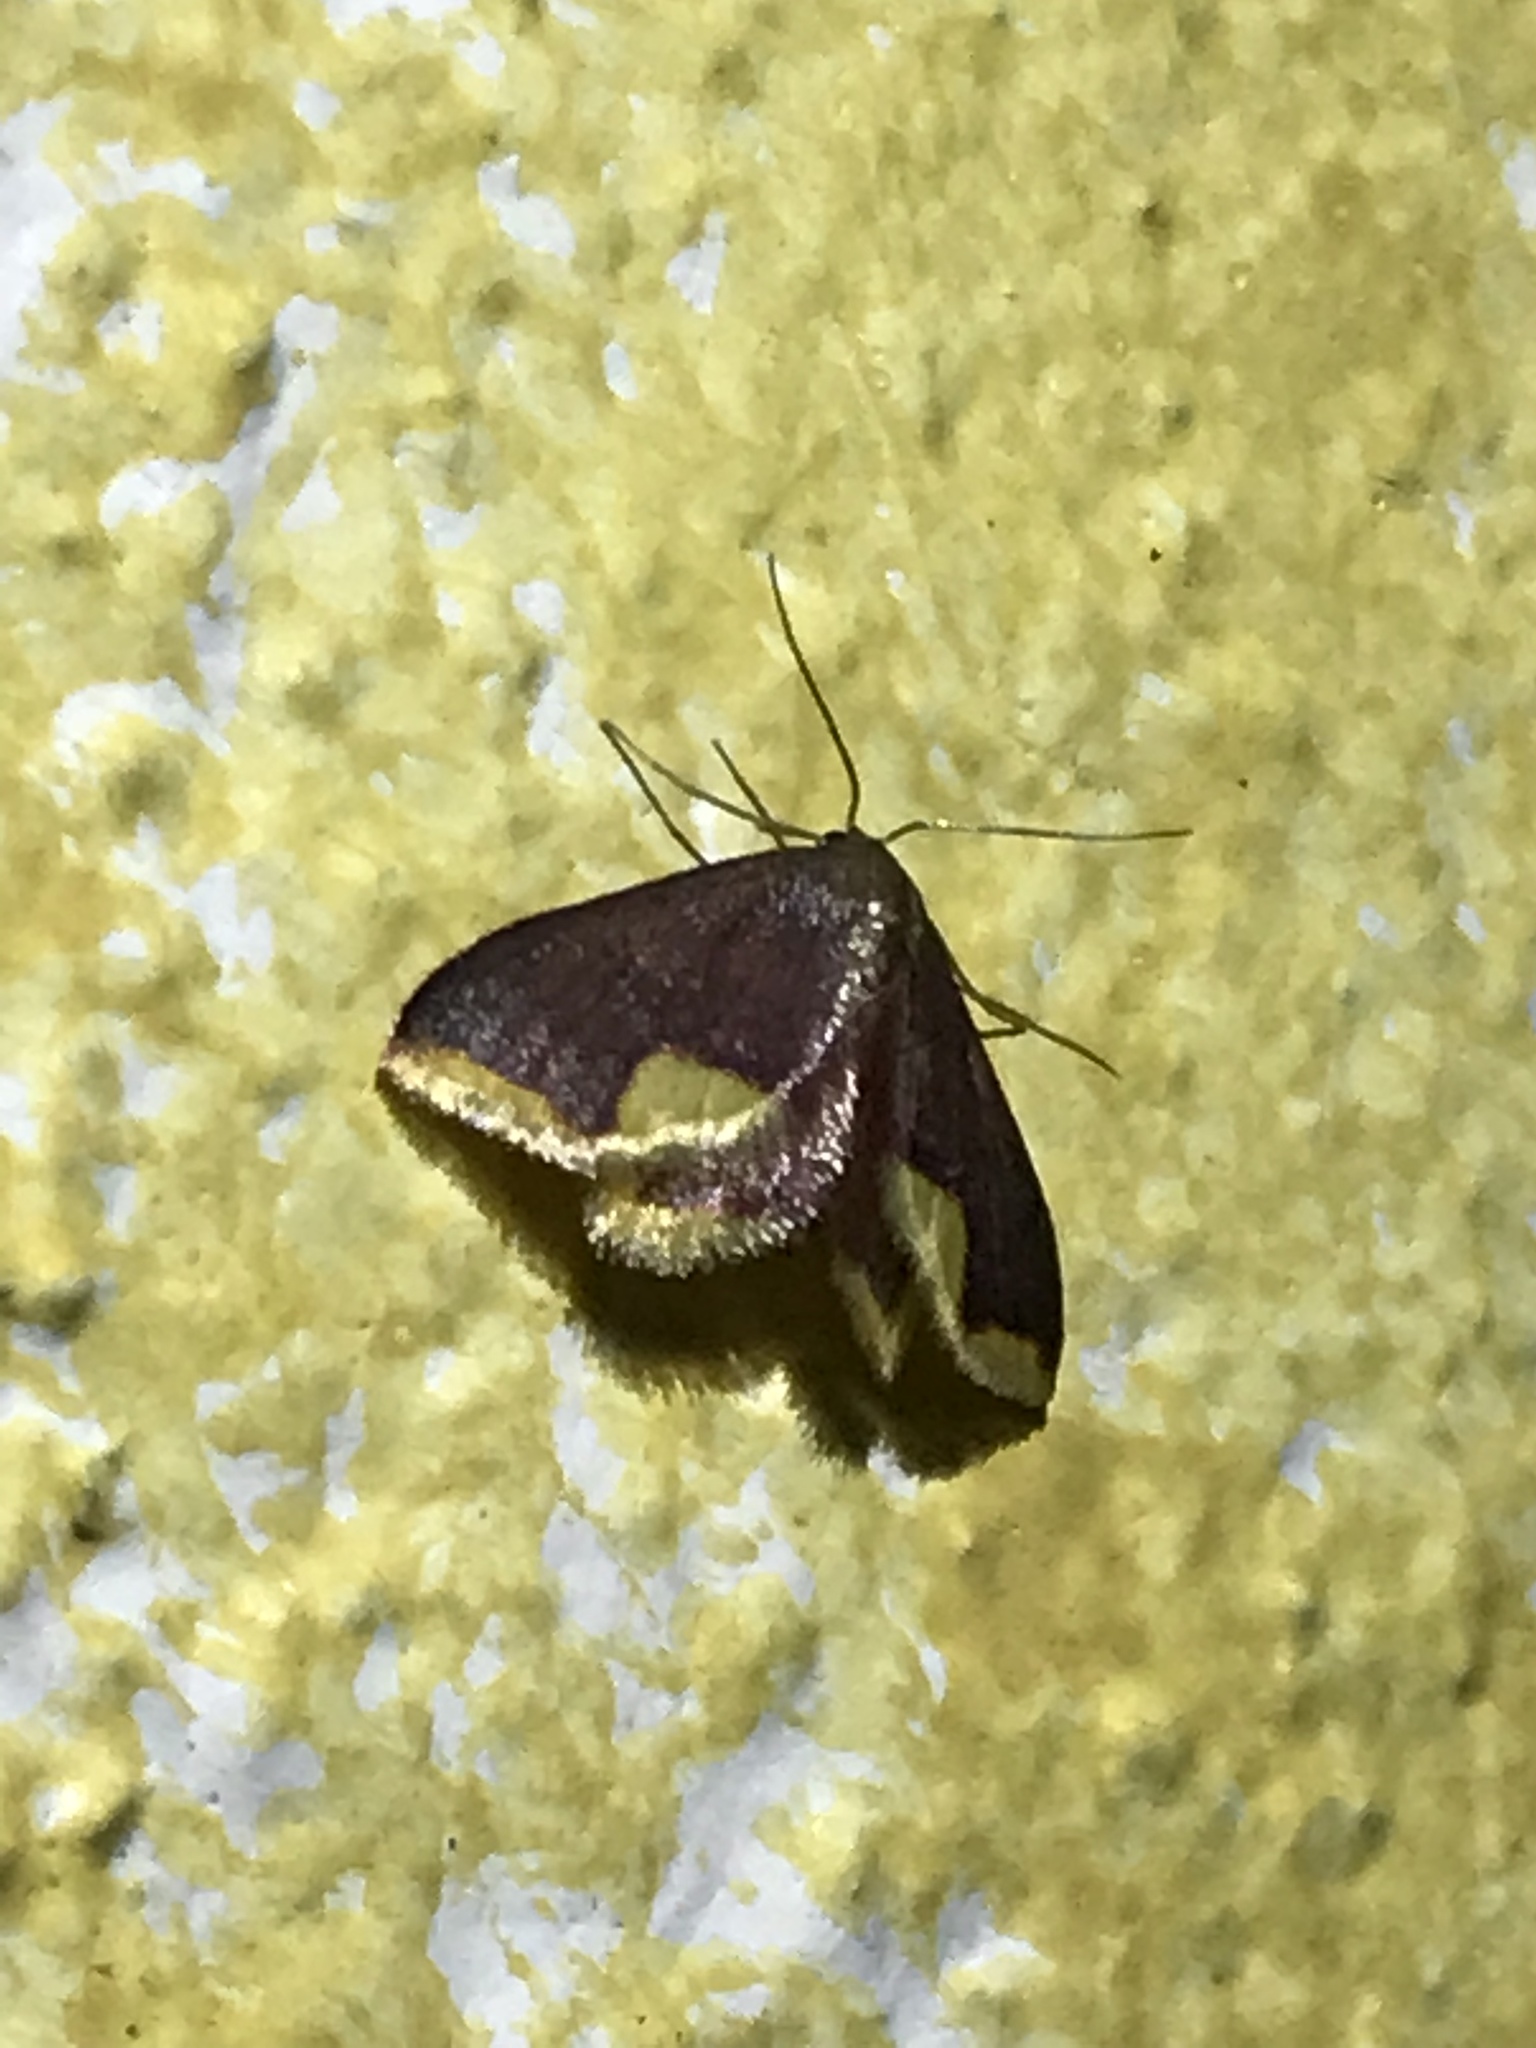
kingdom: Animalia
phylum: Arthropoda
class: Insecta
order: Lepidoptera
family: Geometridae
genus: Lophosis
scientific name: Lophosis labeculata
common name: Stained lophosis moth
